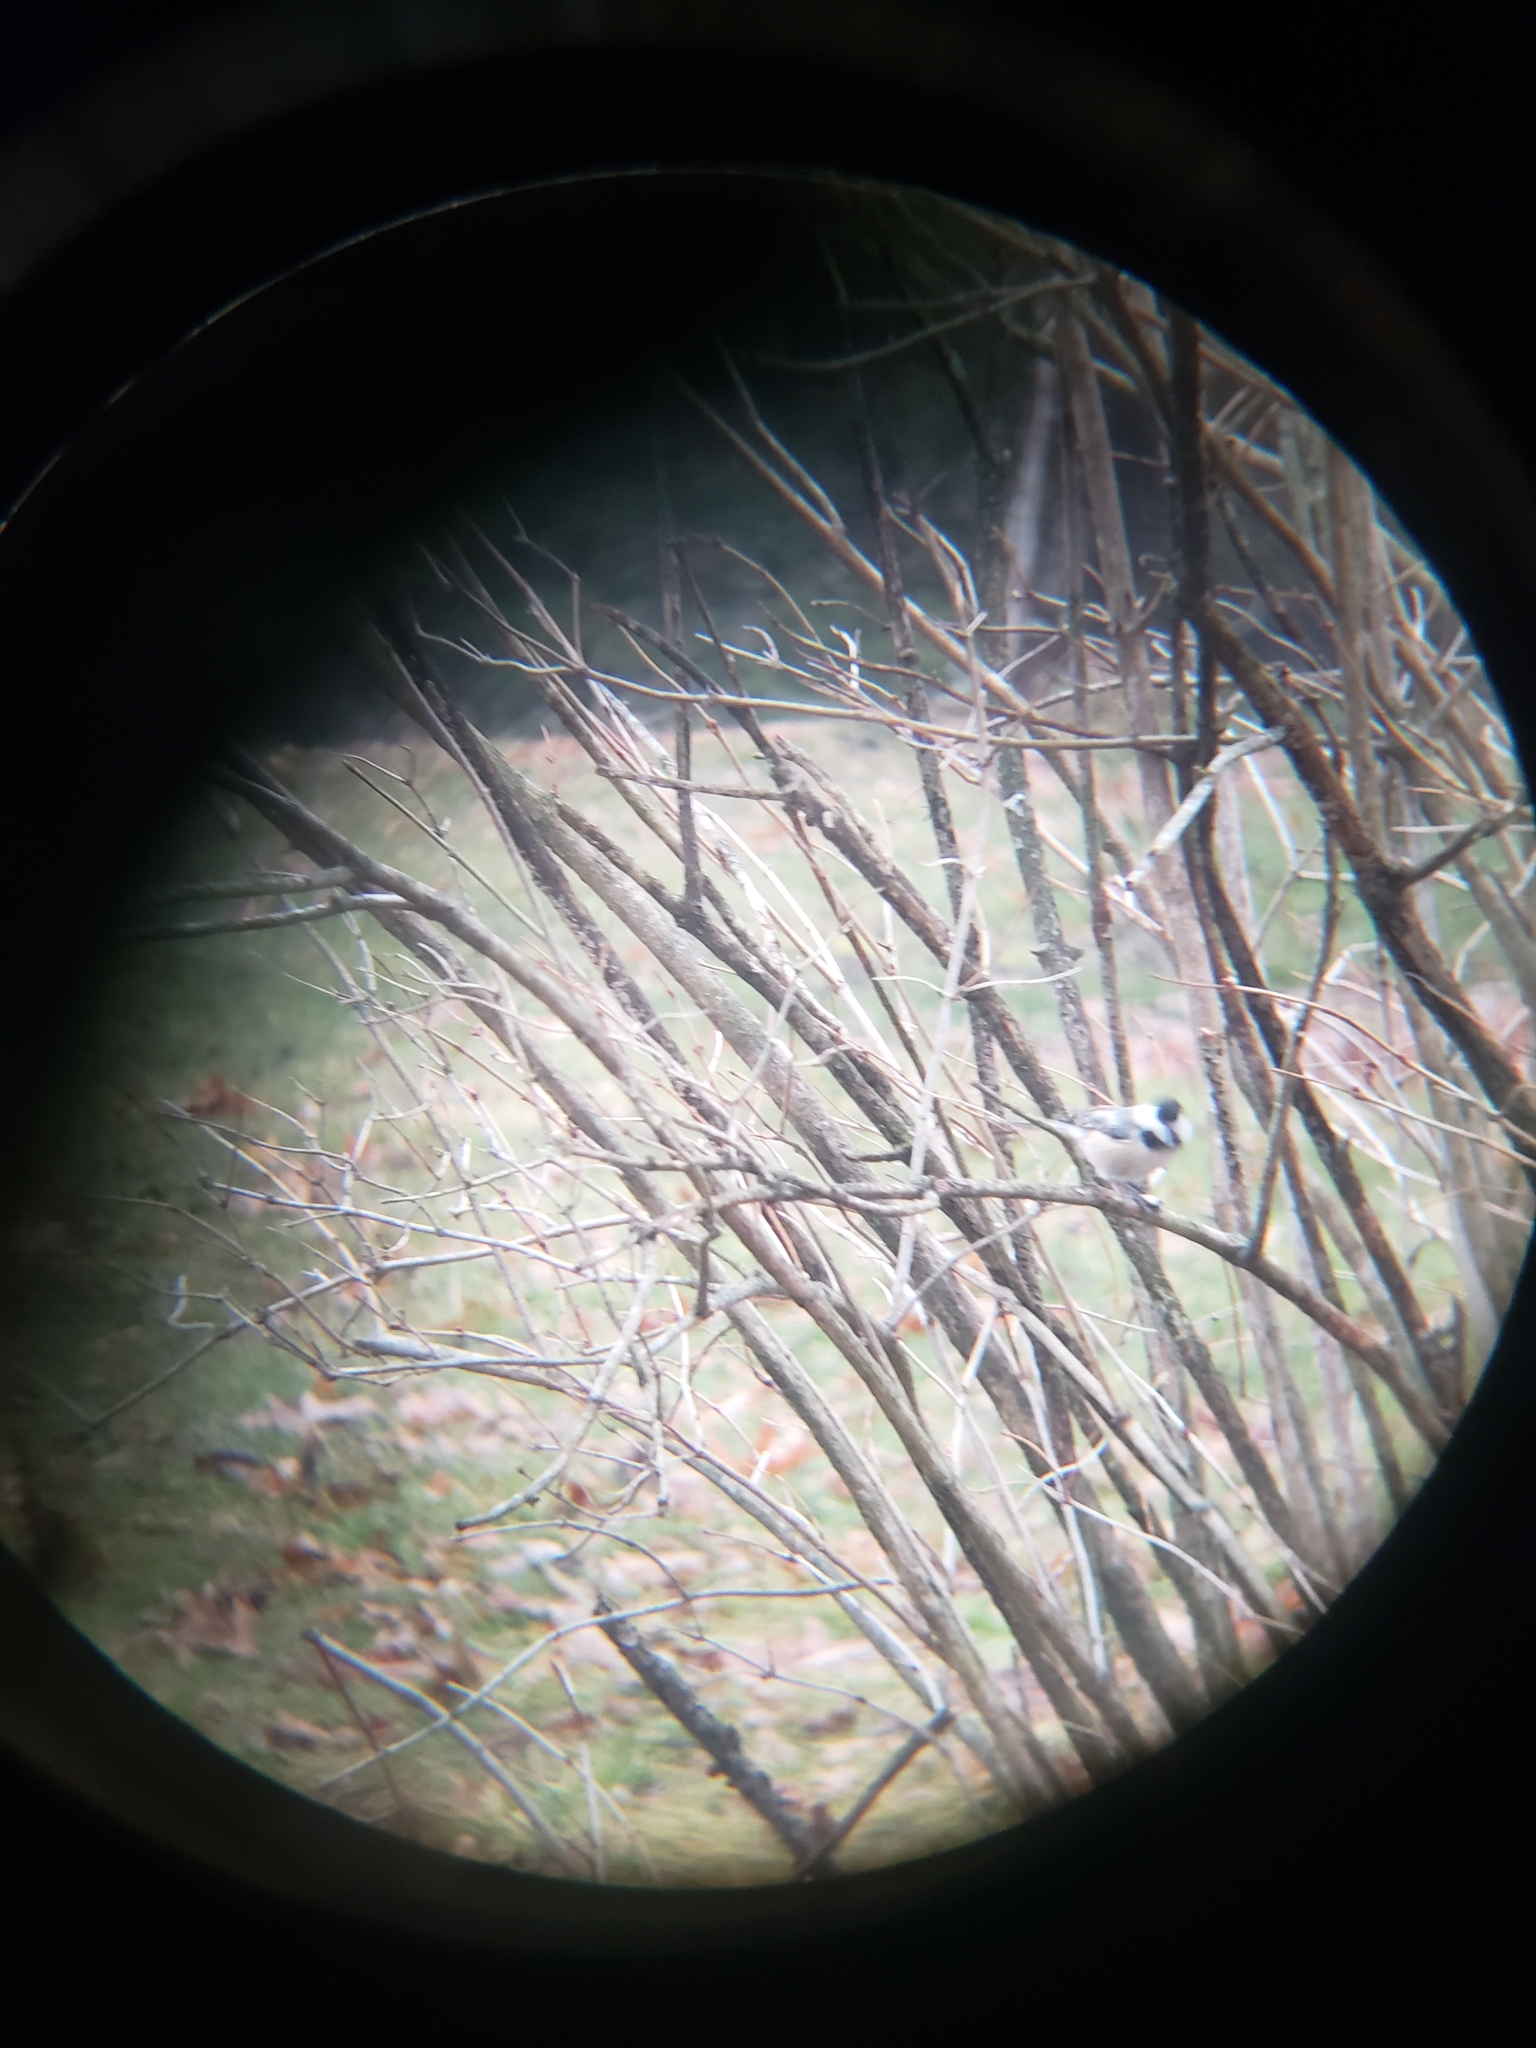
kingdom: Animalia
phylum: Chordata
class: Aves
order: Passeriformes
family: Paridae
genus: Poecile
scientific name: Poecile atricapillus
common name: Black-capped chickadee
